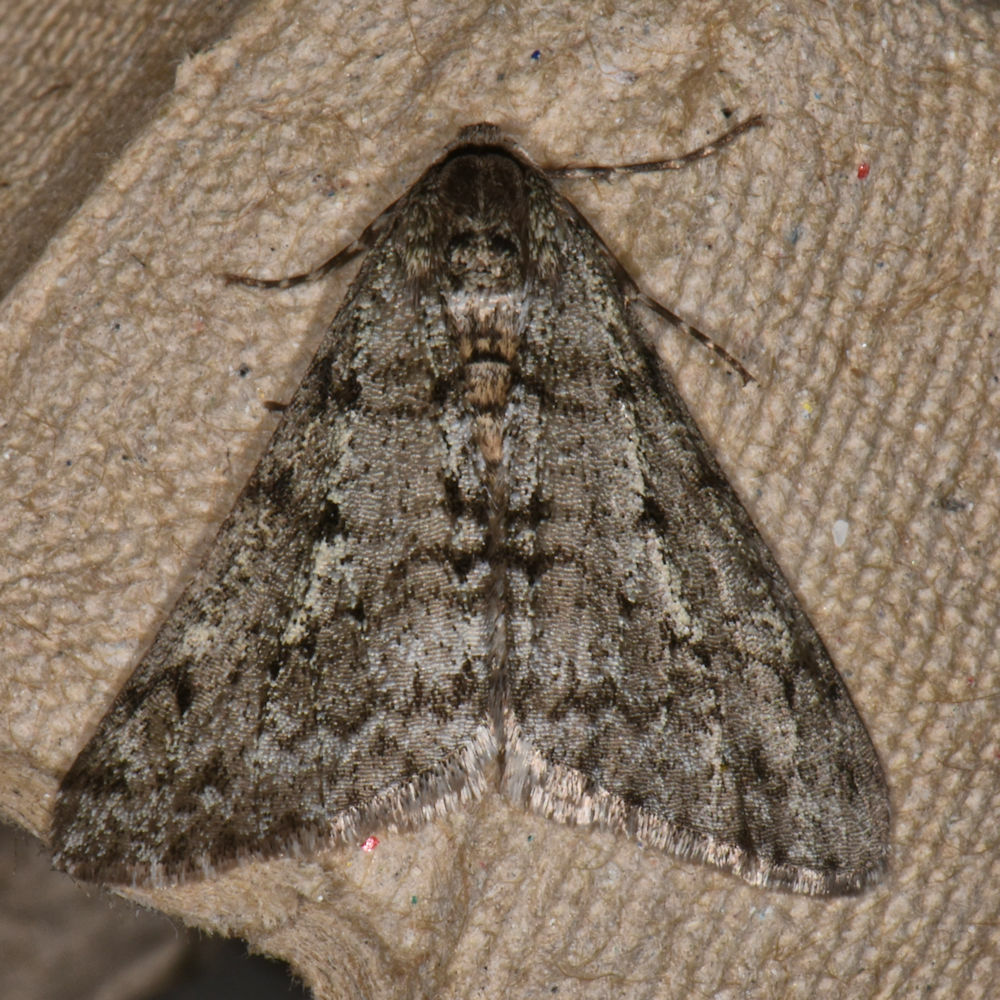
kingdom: Animalia
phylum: Arthropoda
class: Insecta
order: Lepidoptera
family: Geometridae
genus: Phigalia
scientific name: Phigalia strigataria
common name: Small phigalia
